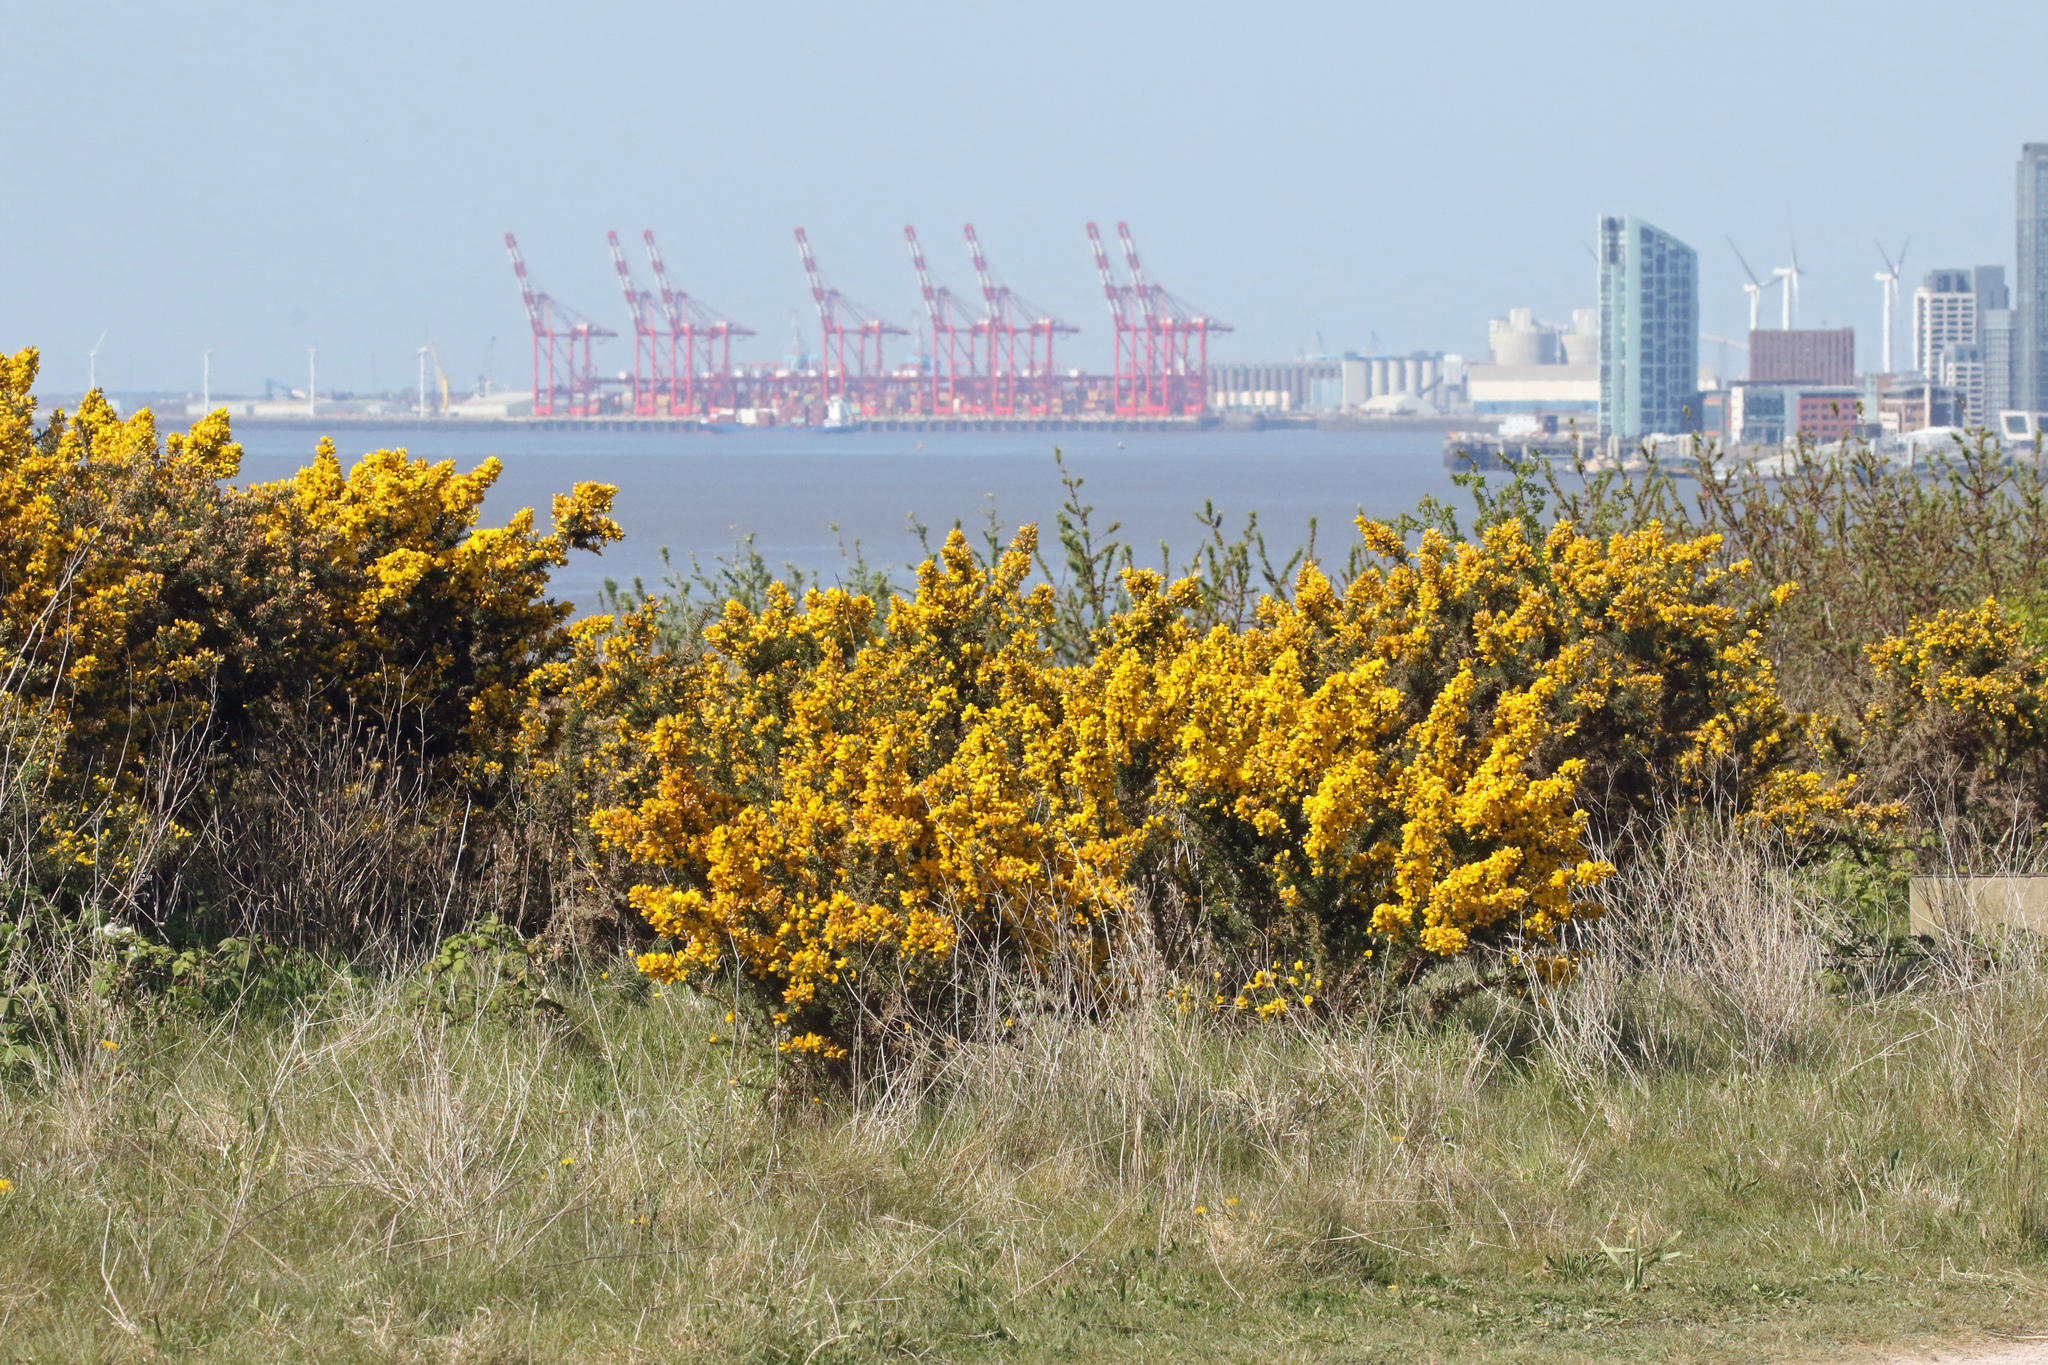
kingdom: Plantae
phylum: Tracheophyta
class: Magnoliopsida
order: Fabales
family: Fabaceae
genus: Ulex
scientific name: Ulex europaeus
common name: Common gorse
